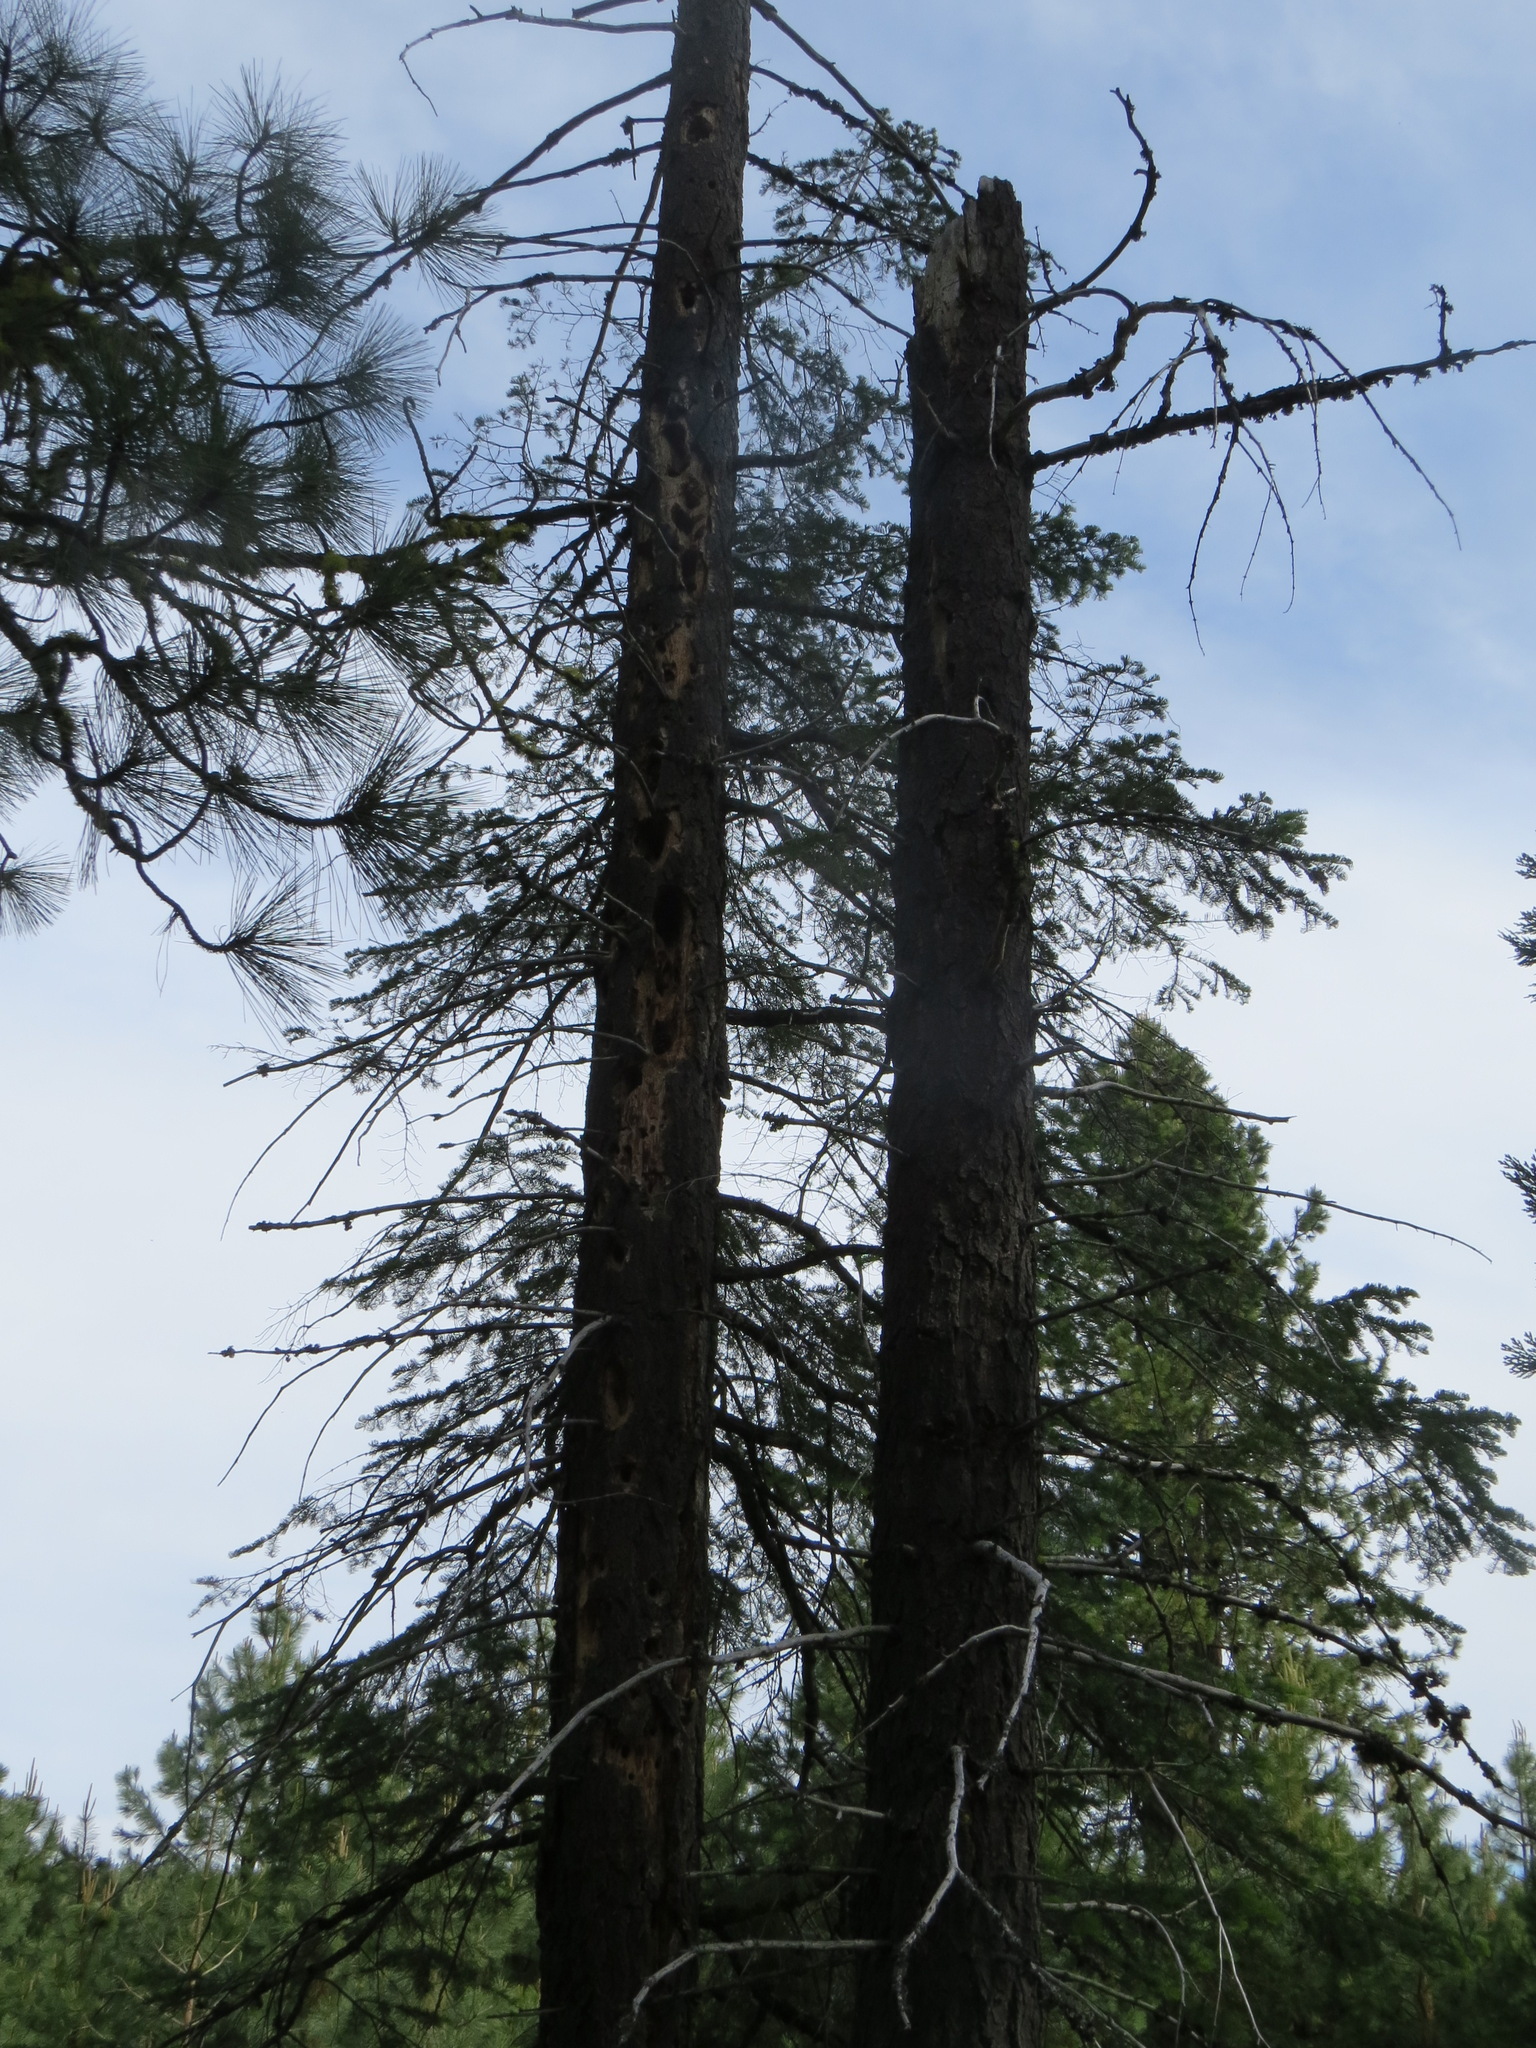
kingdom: Animalia
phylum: Chordata
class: Aves
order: Piciformes
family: Picidae
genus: Dryocopus
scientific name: Dryocopus pileatus
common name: Pileated woodpecker
